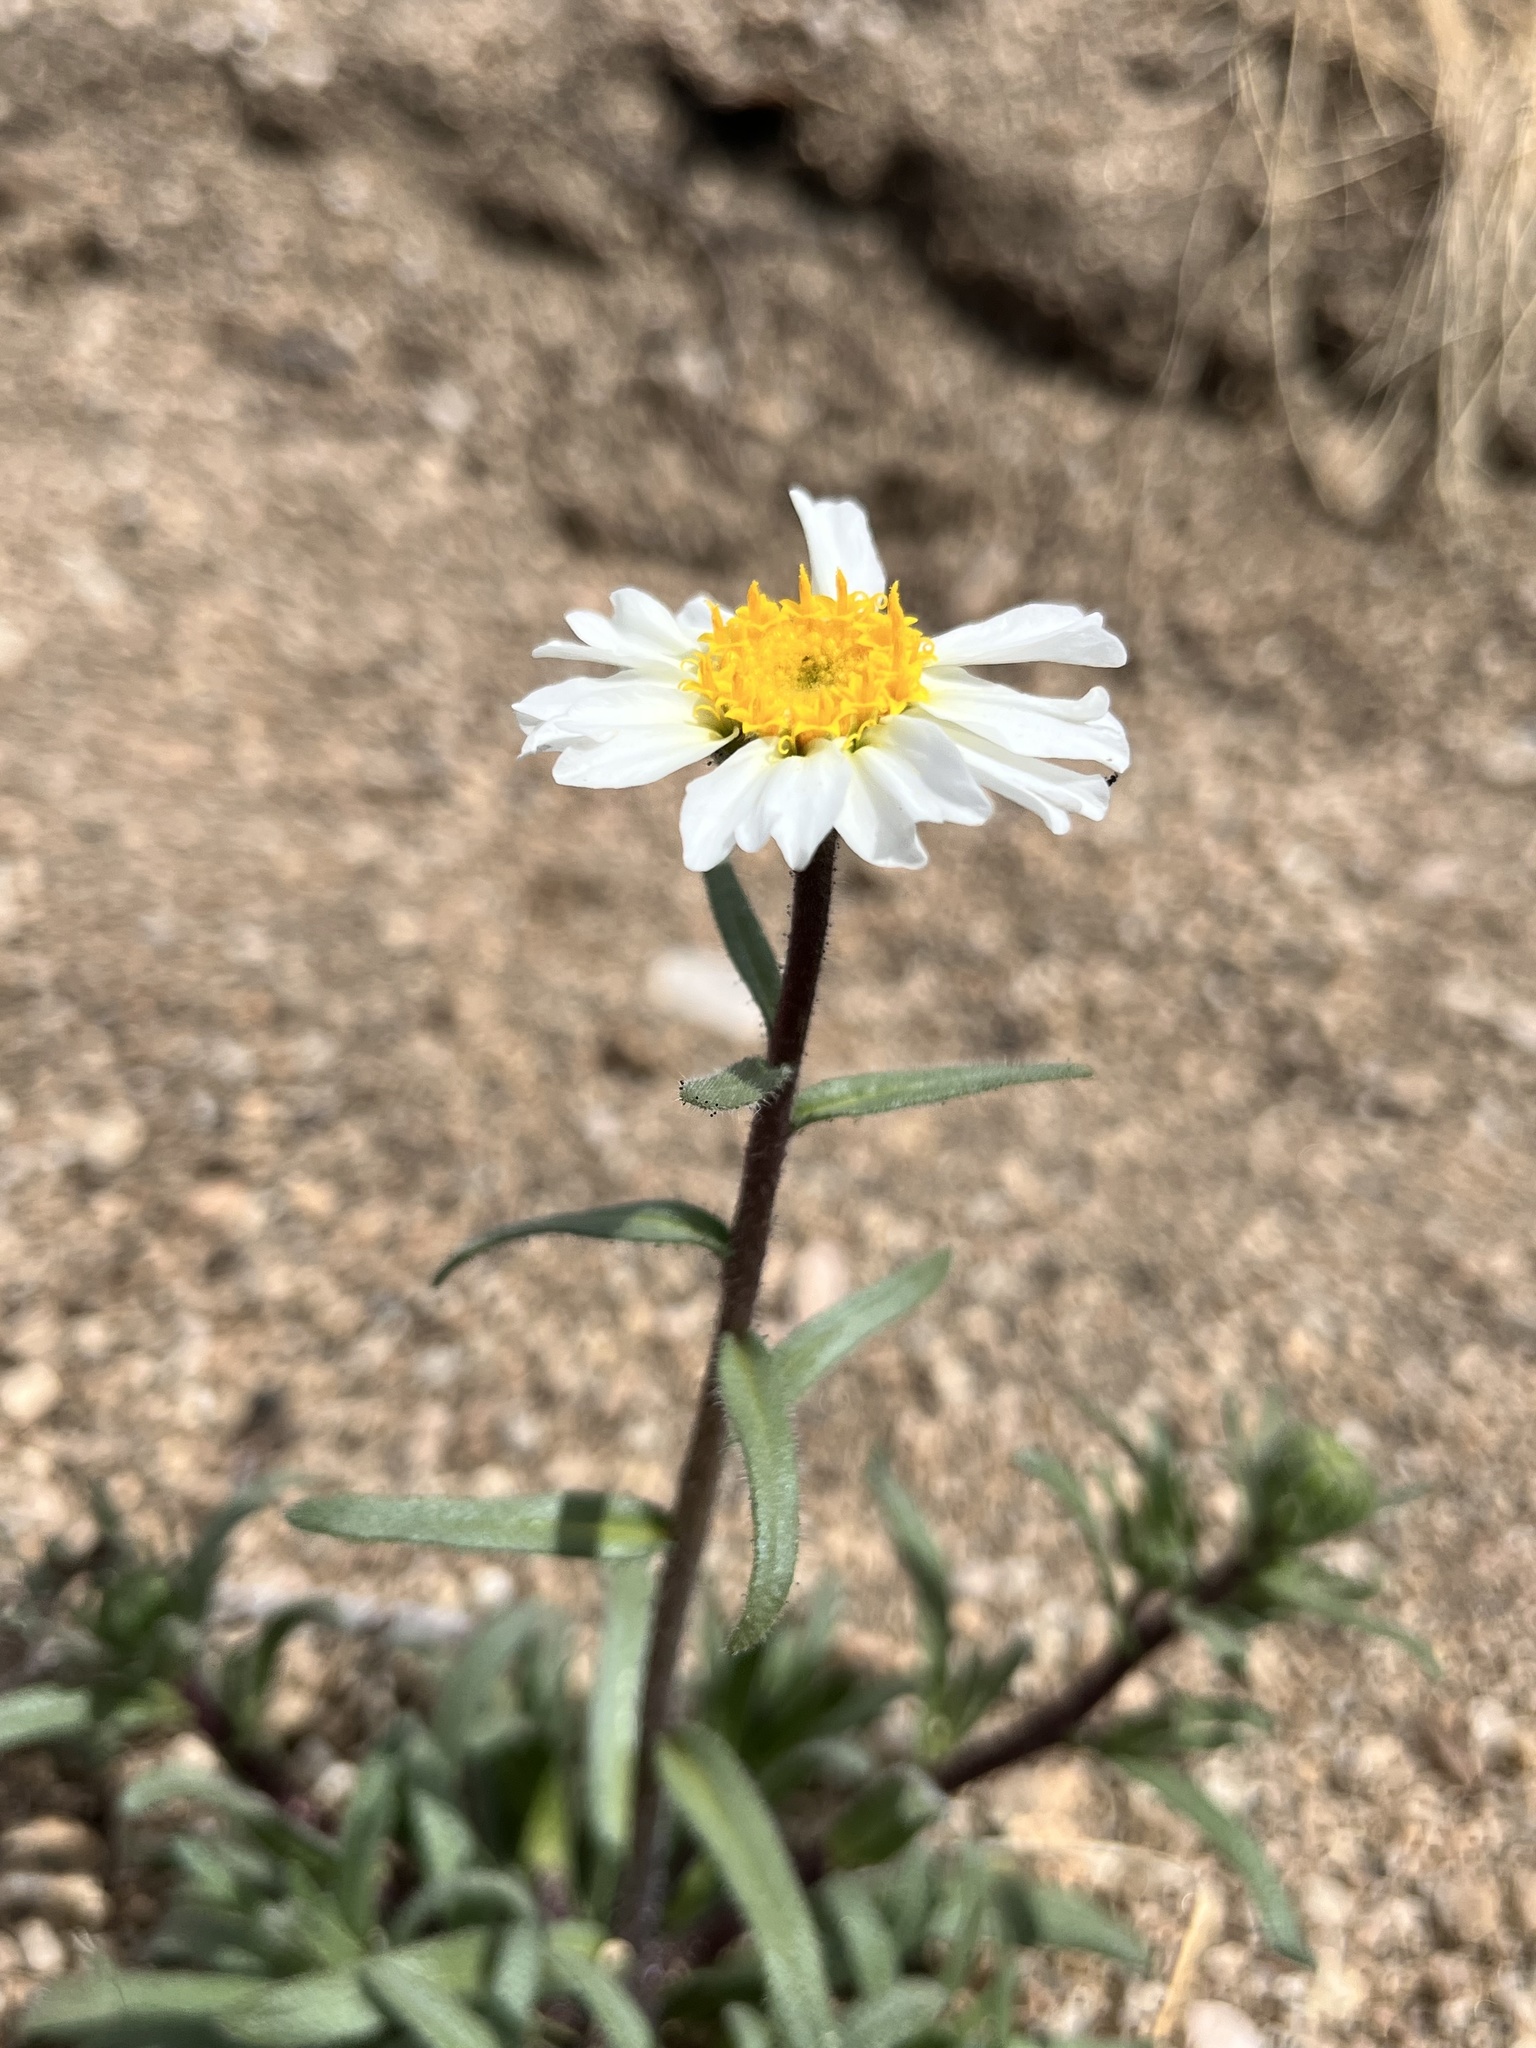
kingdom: Plantae
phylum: Tracheophyta
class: Magnoliopsida
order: Asterales
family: Asteraceae
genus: Layia
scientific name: Layia glandulosa
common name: White layia
